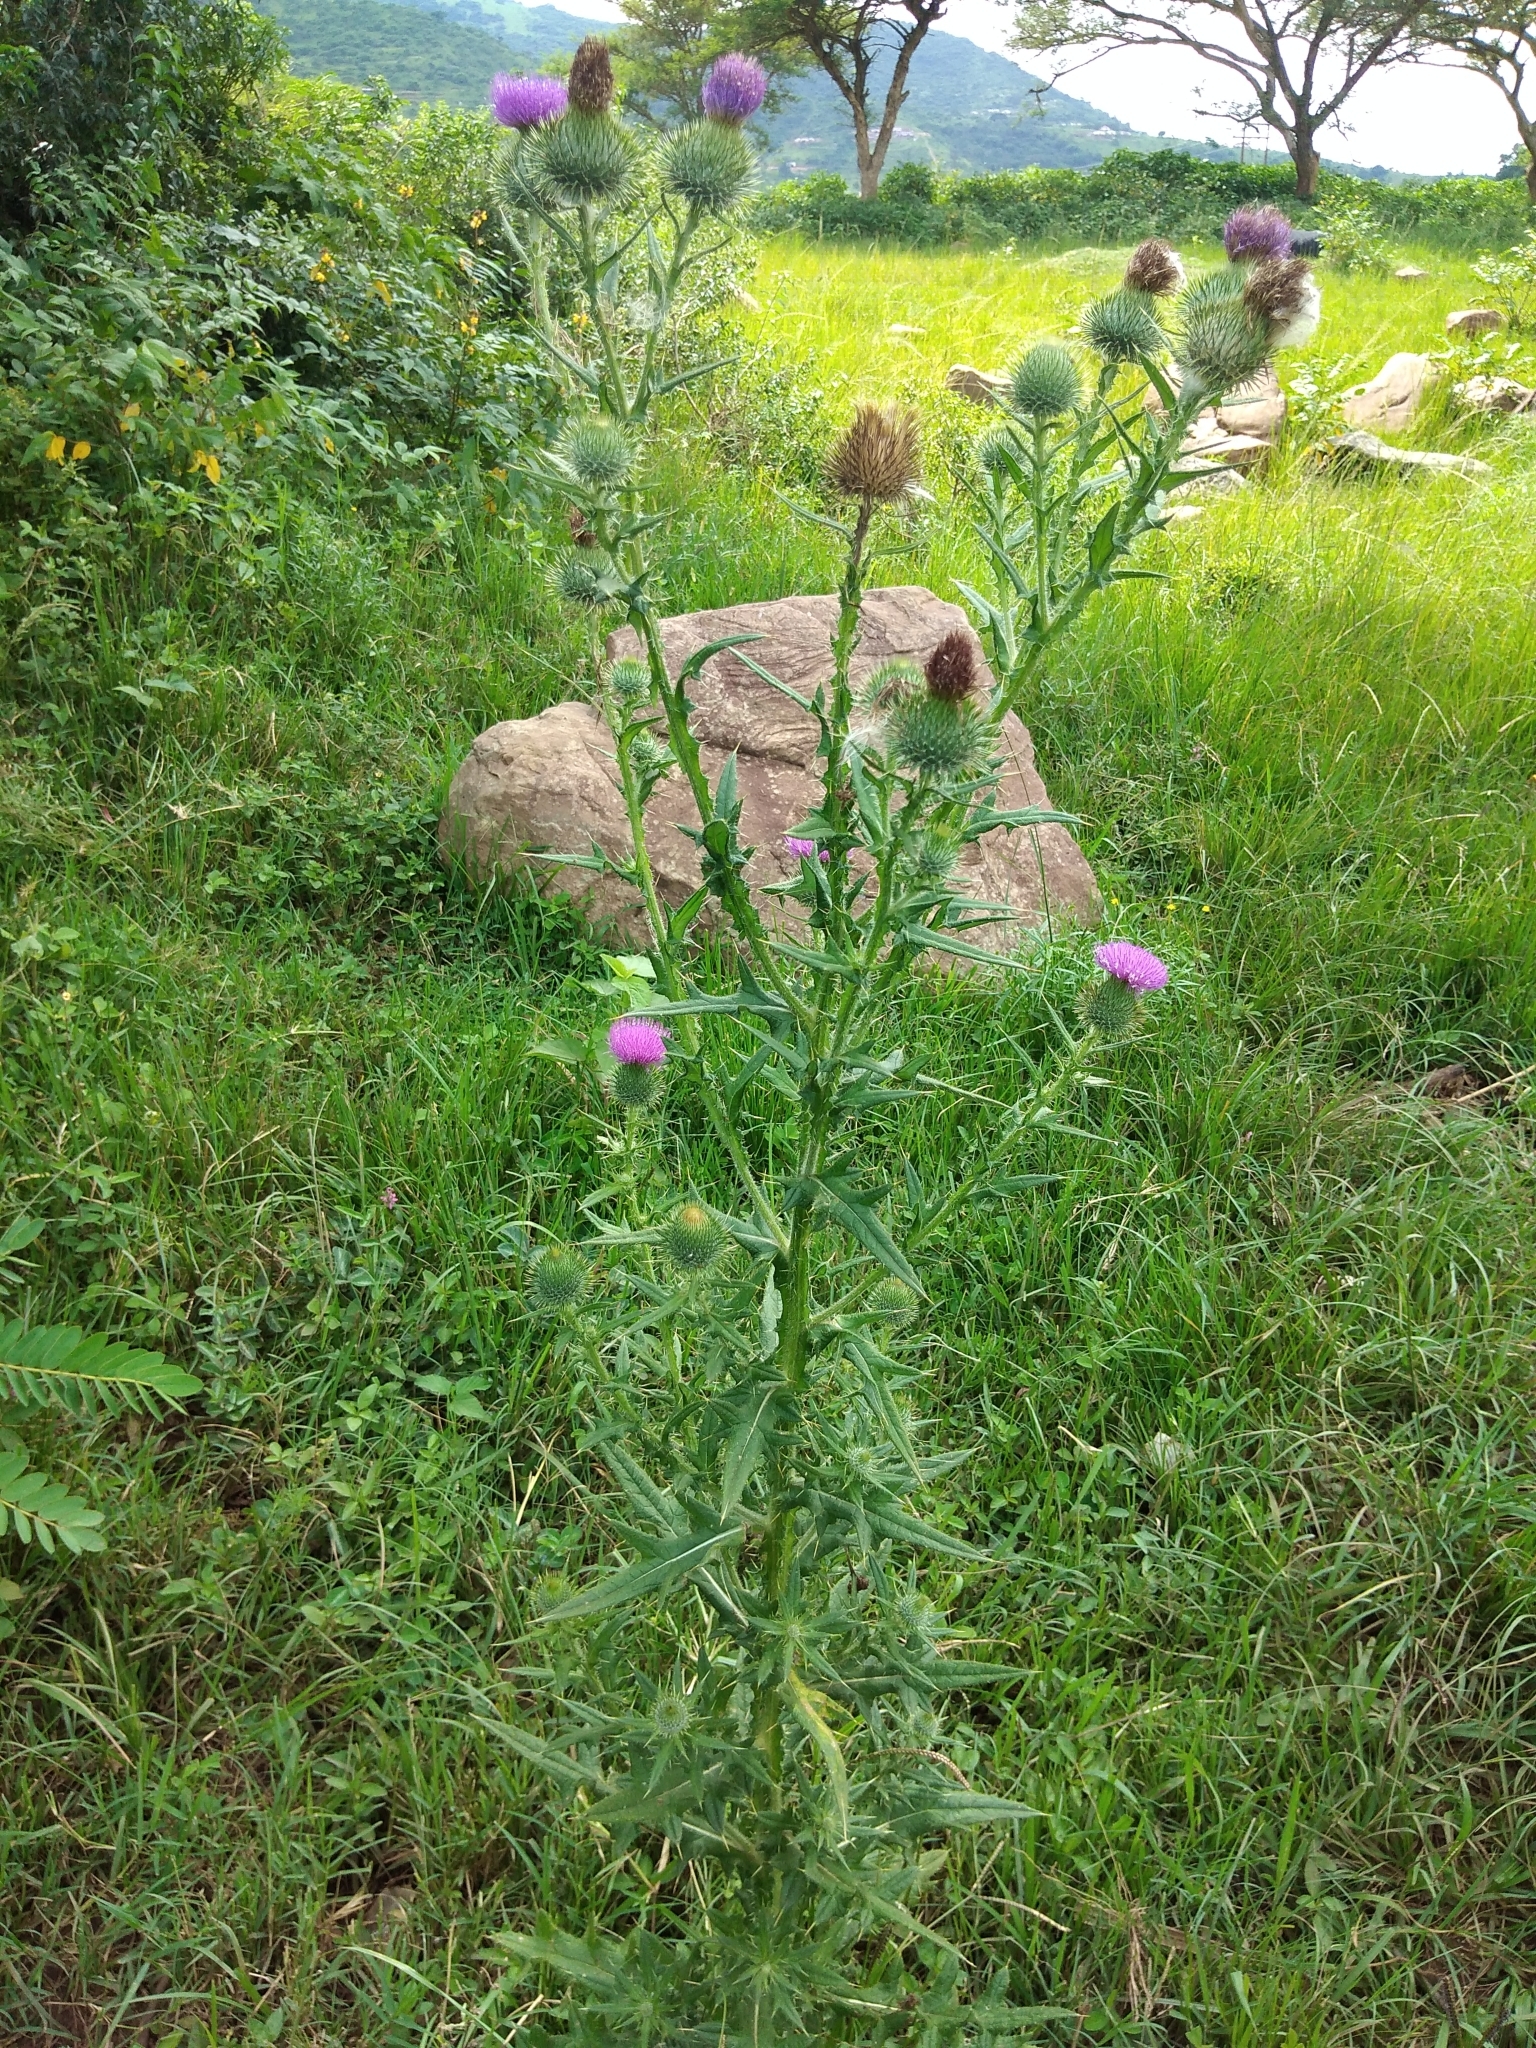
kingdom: Plantae
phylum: Tracheophyta
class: Magnoliopsida
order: Asterales
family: Asteraceae
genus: Cirsium
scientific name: Cirsium vulgare
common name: Bull thistle
